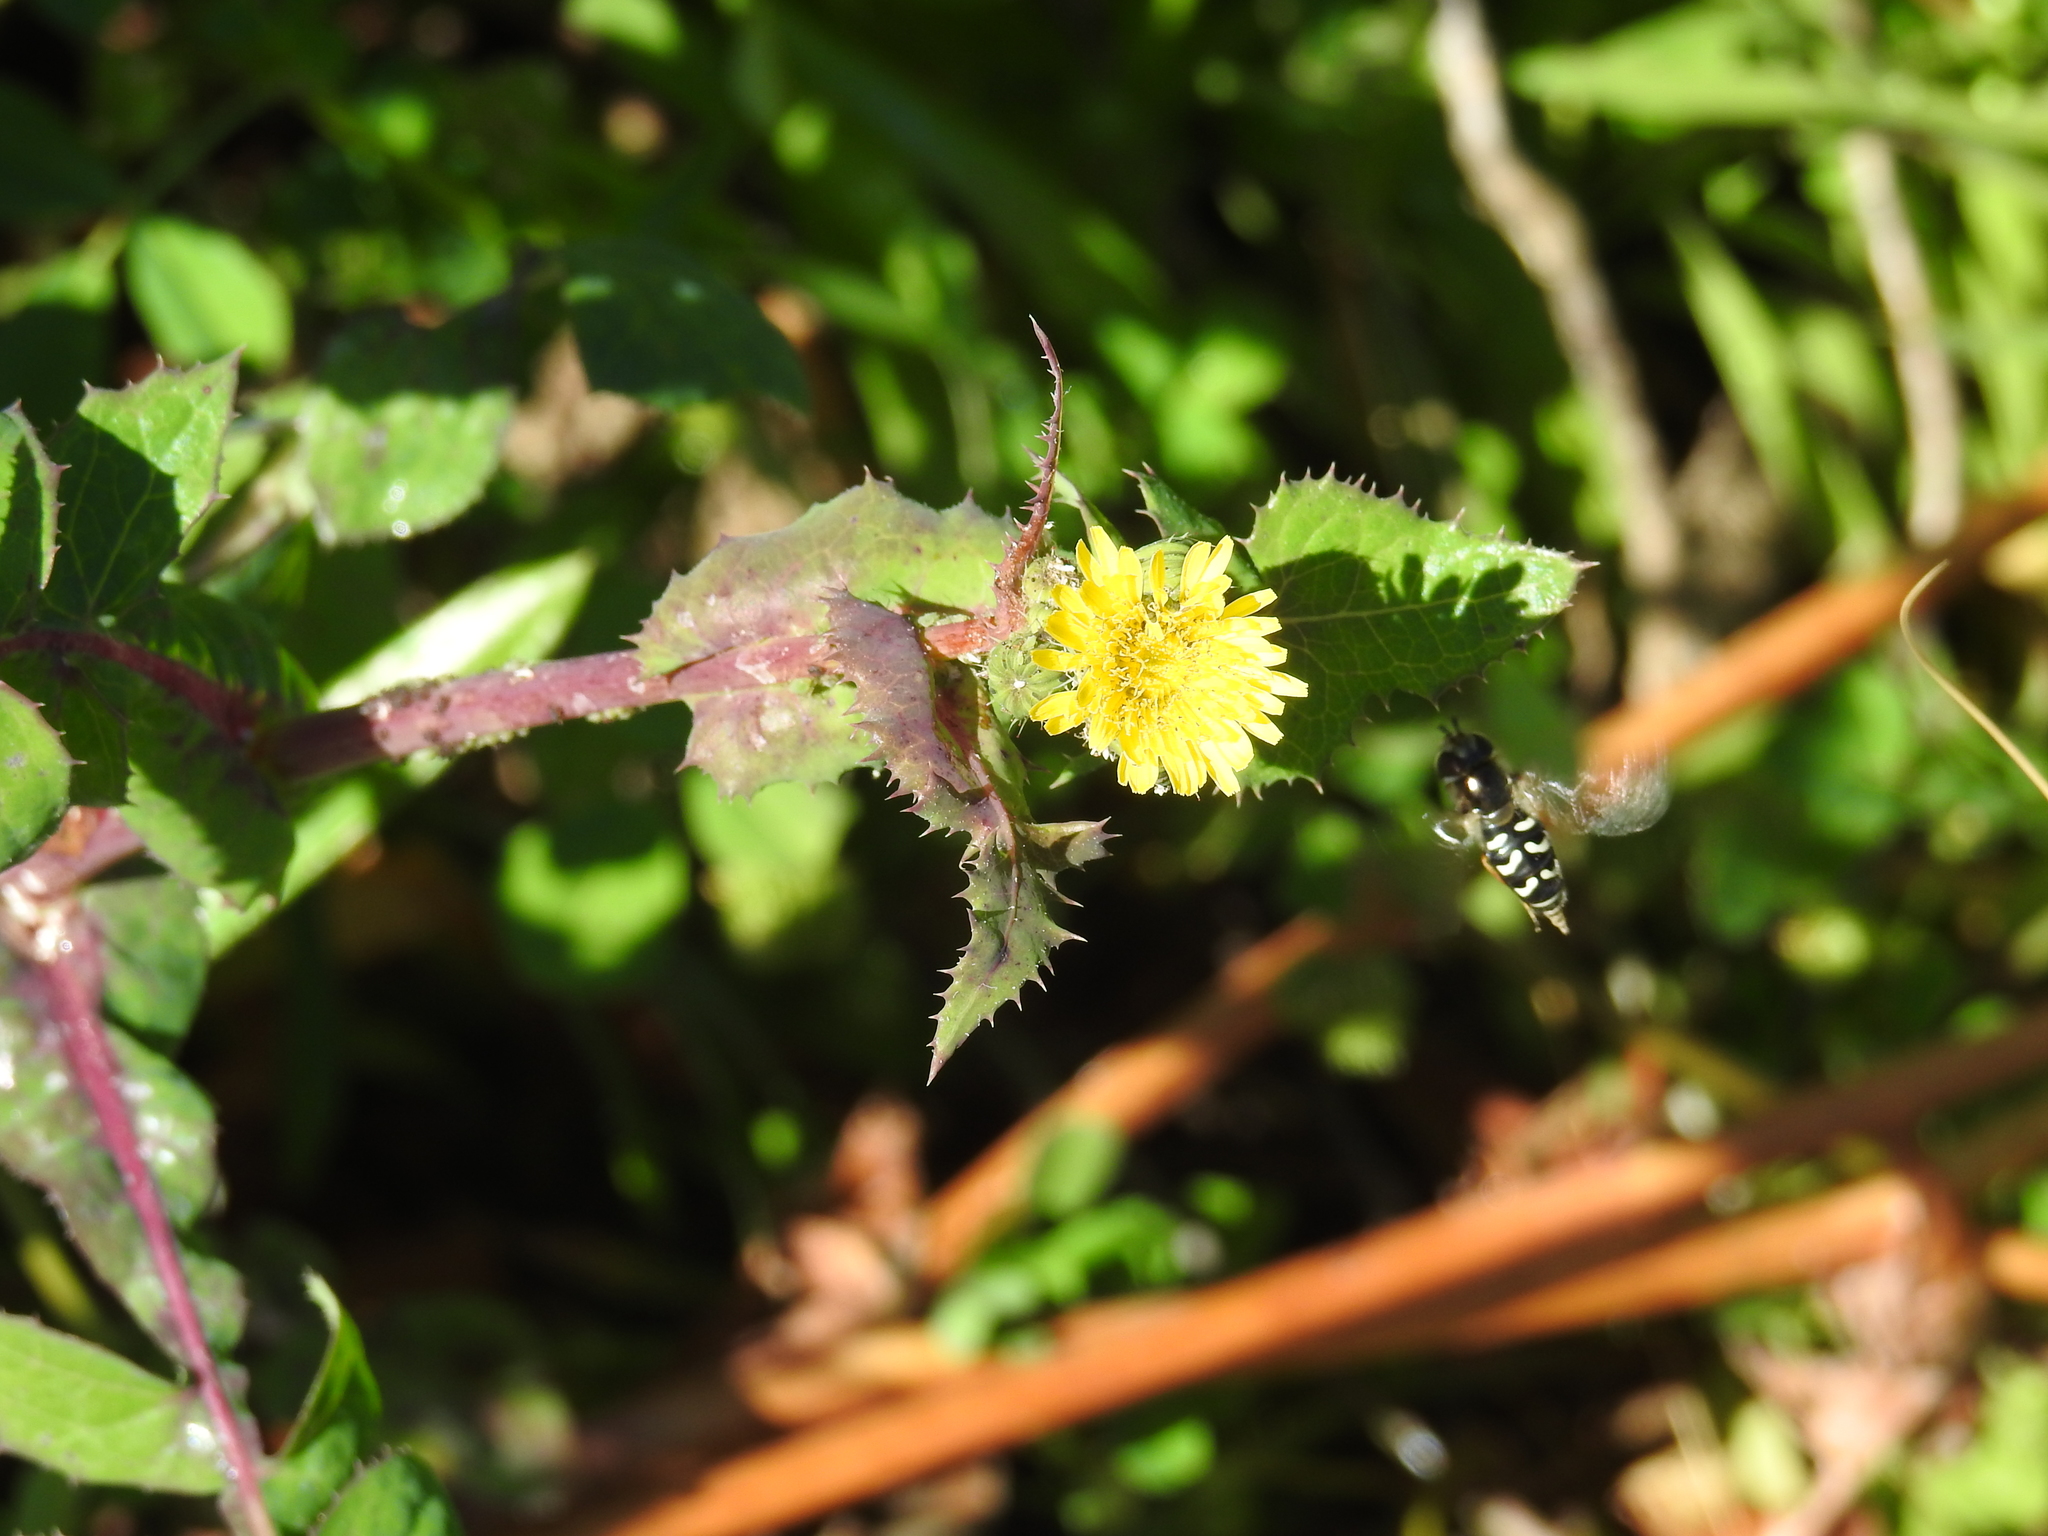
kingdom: Animalia
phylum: Arthropoda
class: Insecta
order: Diptera
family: Syrphidae
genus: Eupeodes
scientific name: Eupeodes volucris
